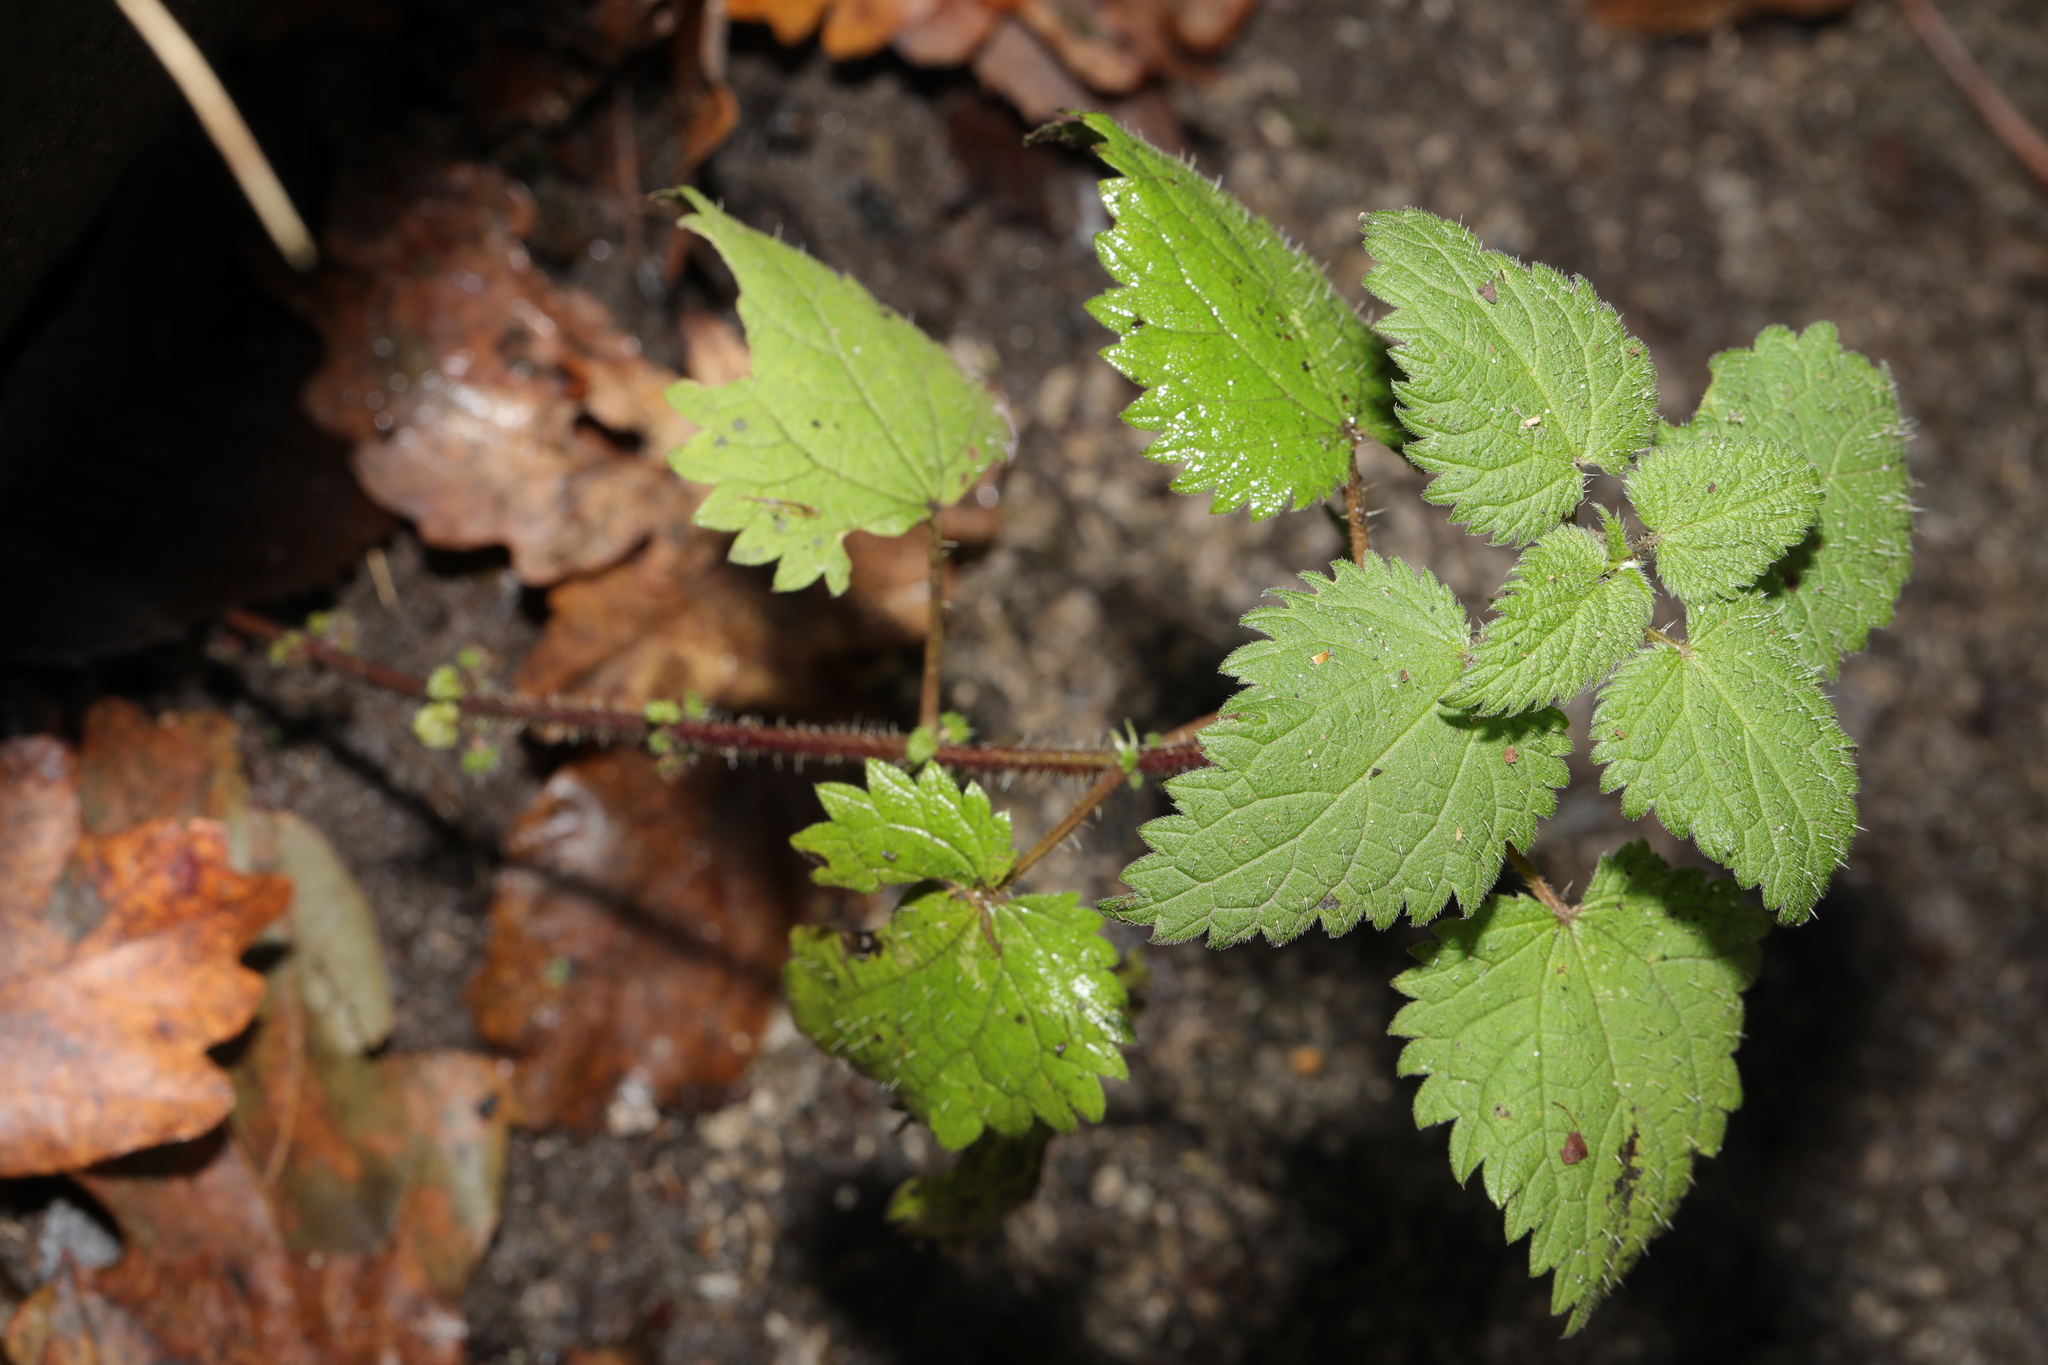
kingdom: Plantae
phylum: Tracheophyta
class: Magnoliopsida
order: Rosales
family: Urticaceae
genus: Urtica
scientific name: Urtica dioica
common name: Common nettle
